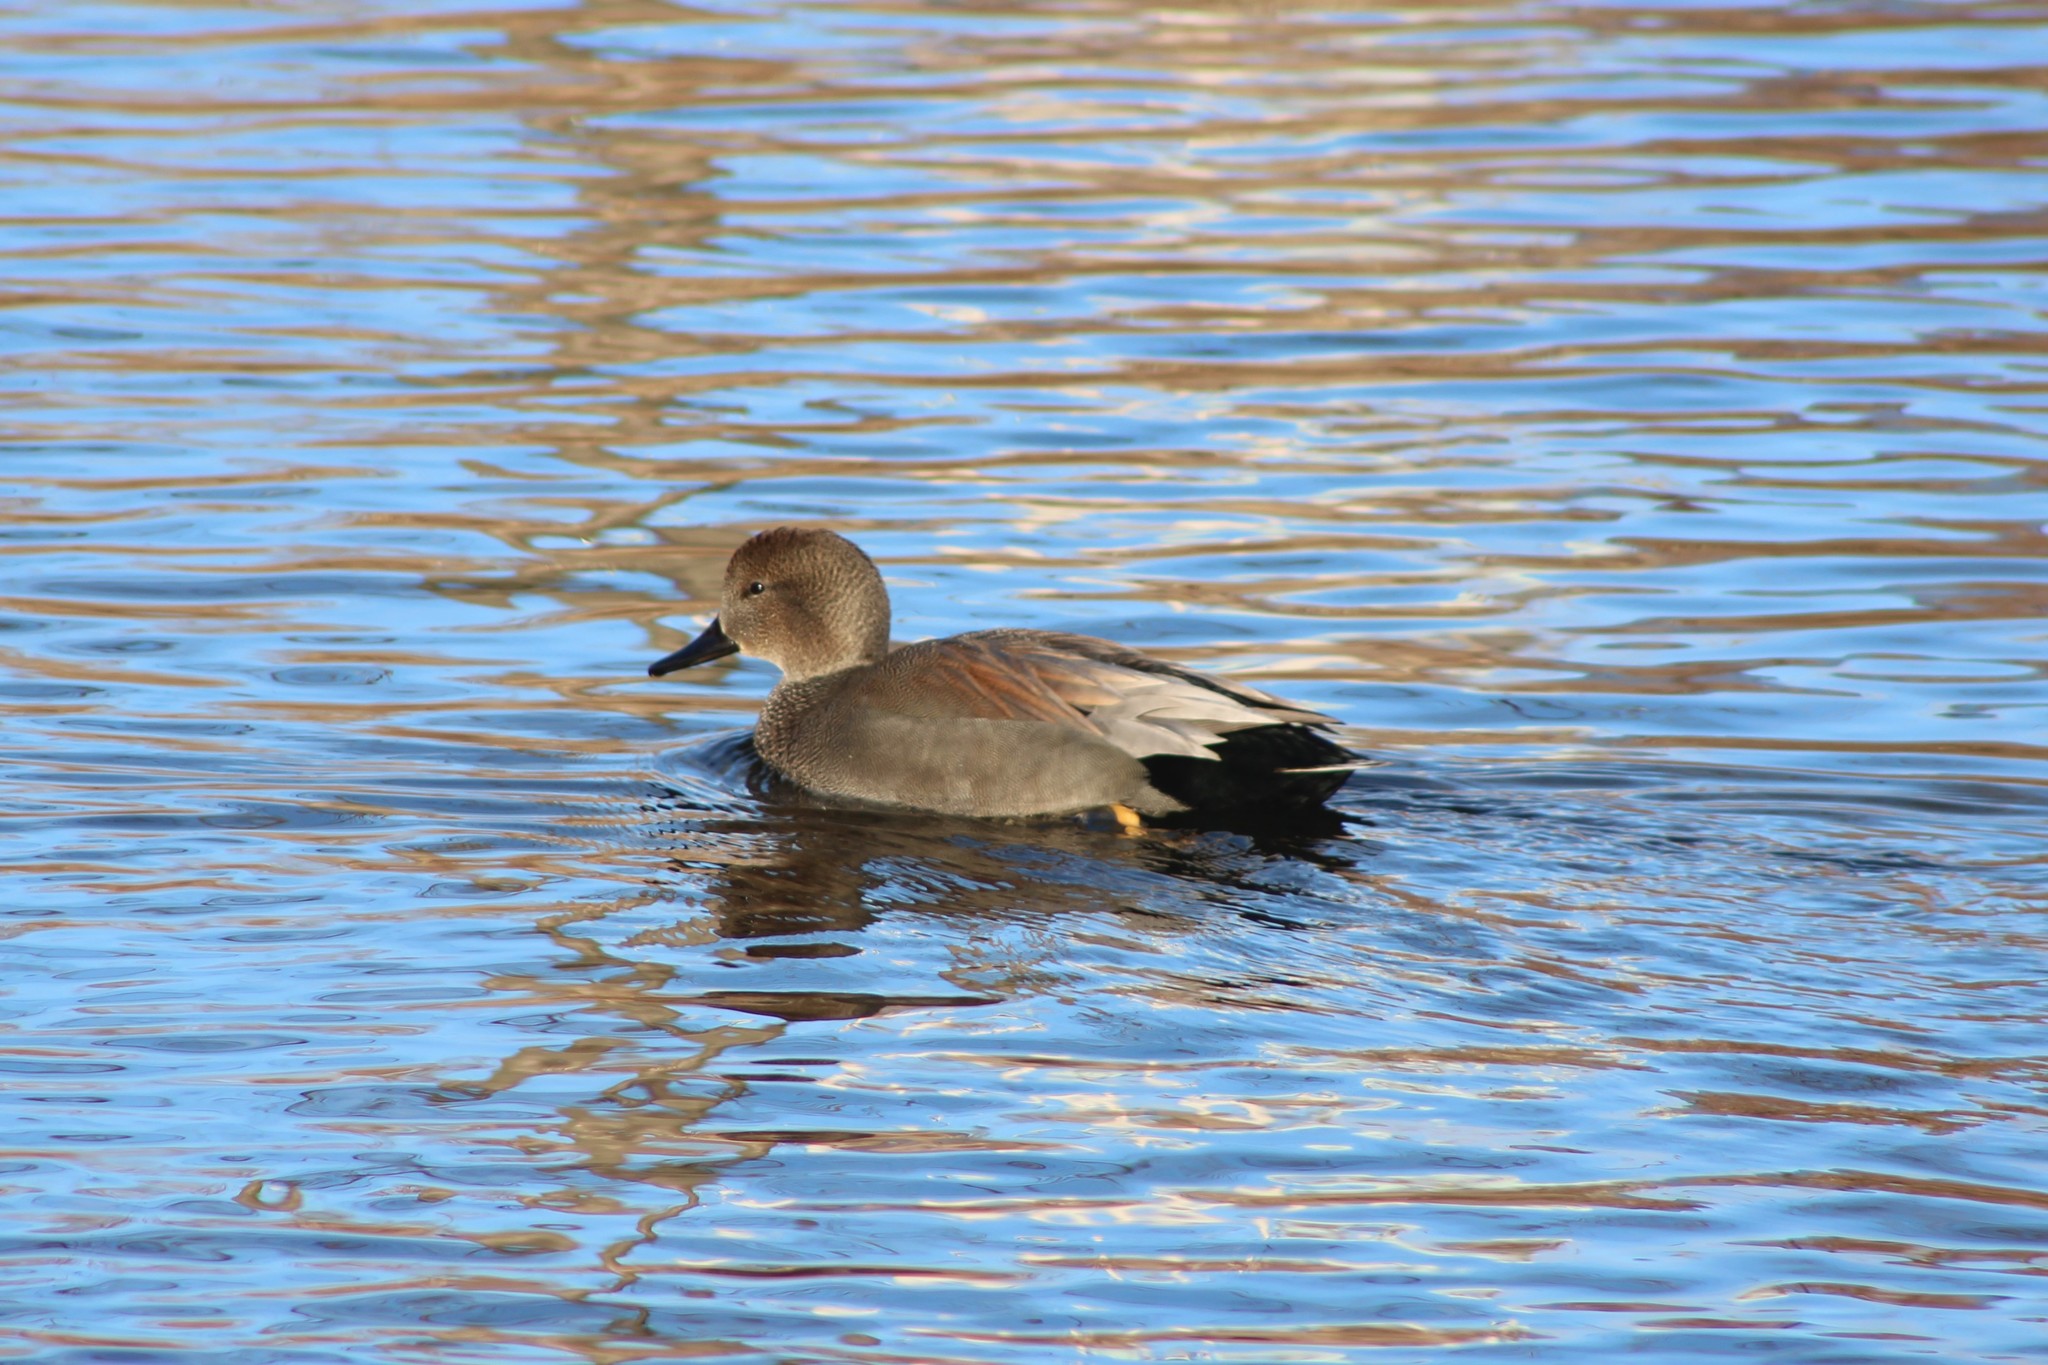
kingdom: Animalia
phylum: Chordata
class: Aves
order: Anseriformes
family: Anatidae
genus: Mareca
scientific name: Mareca strepera
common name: Gadwall
